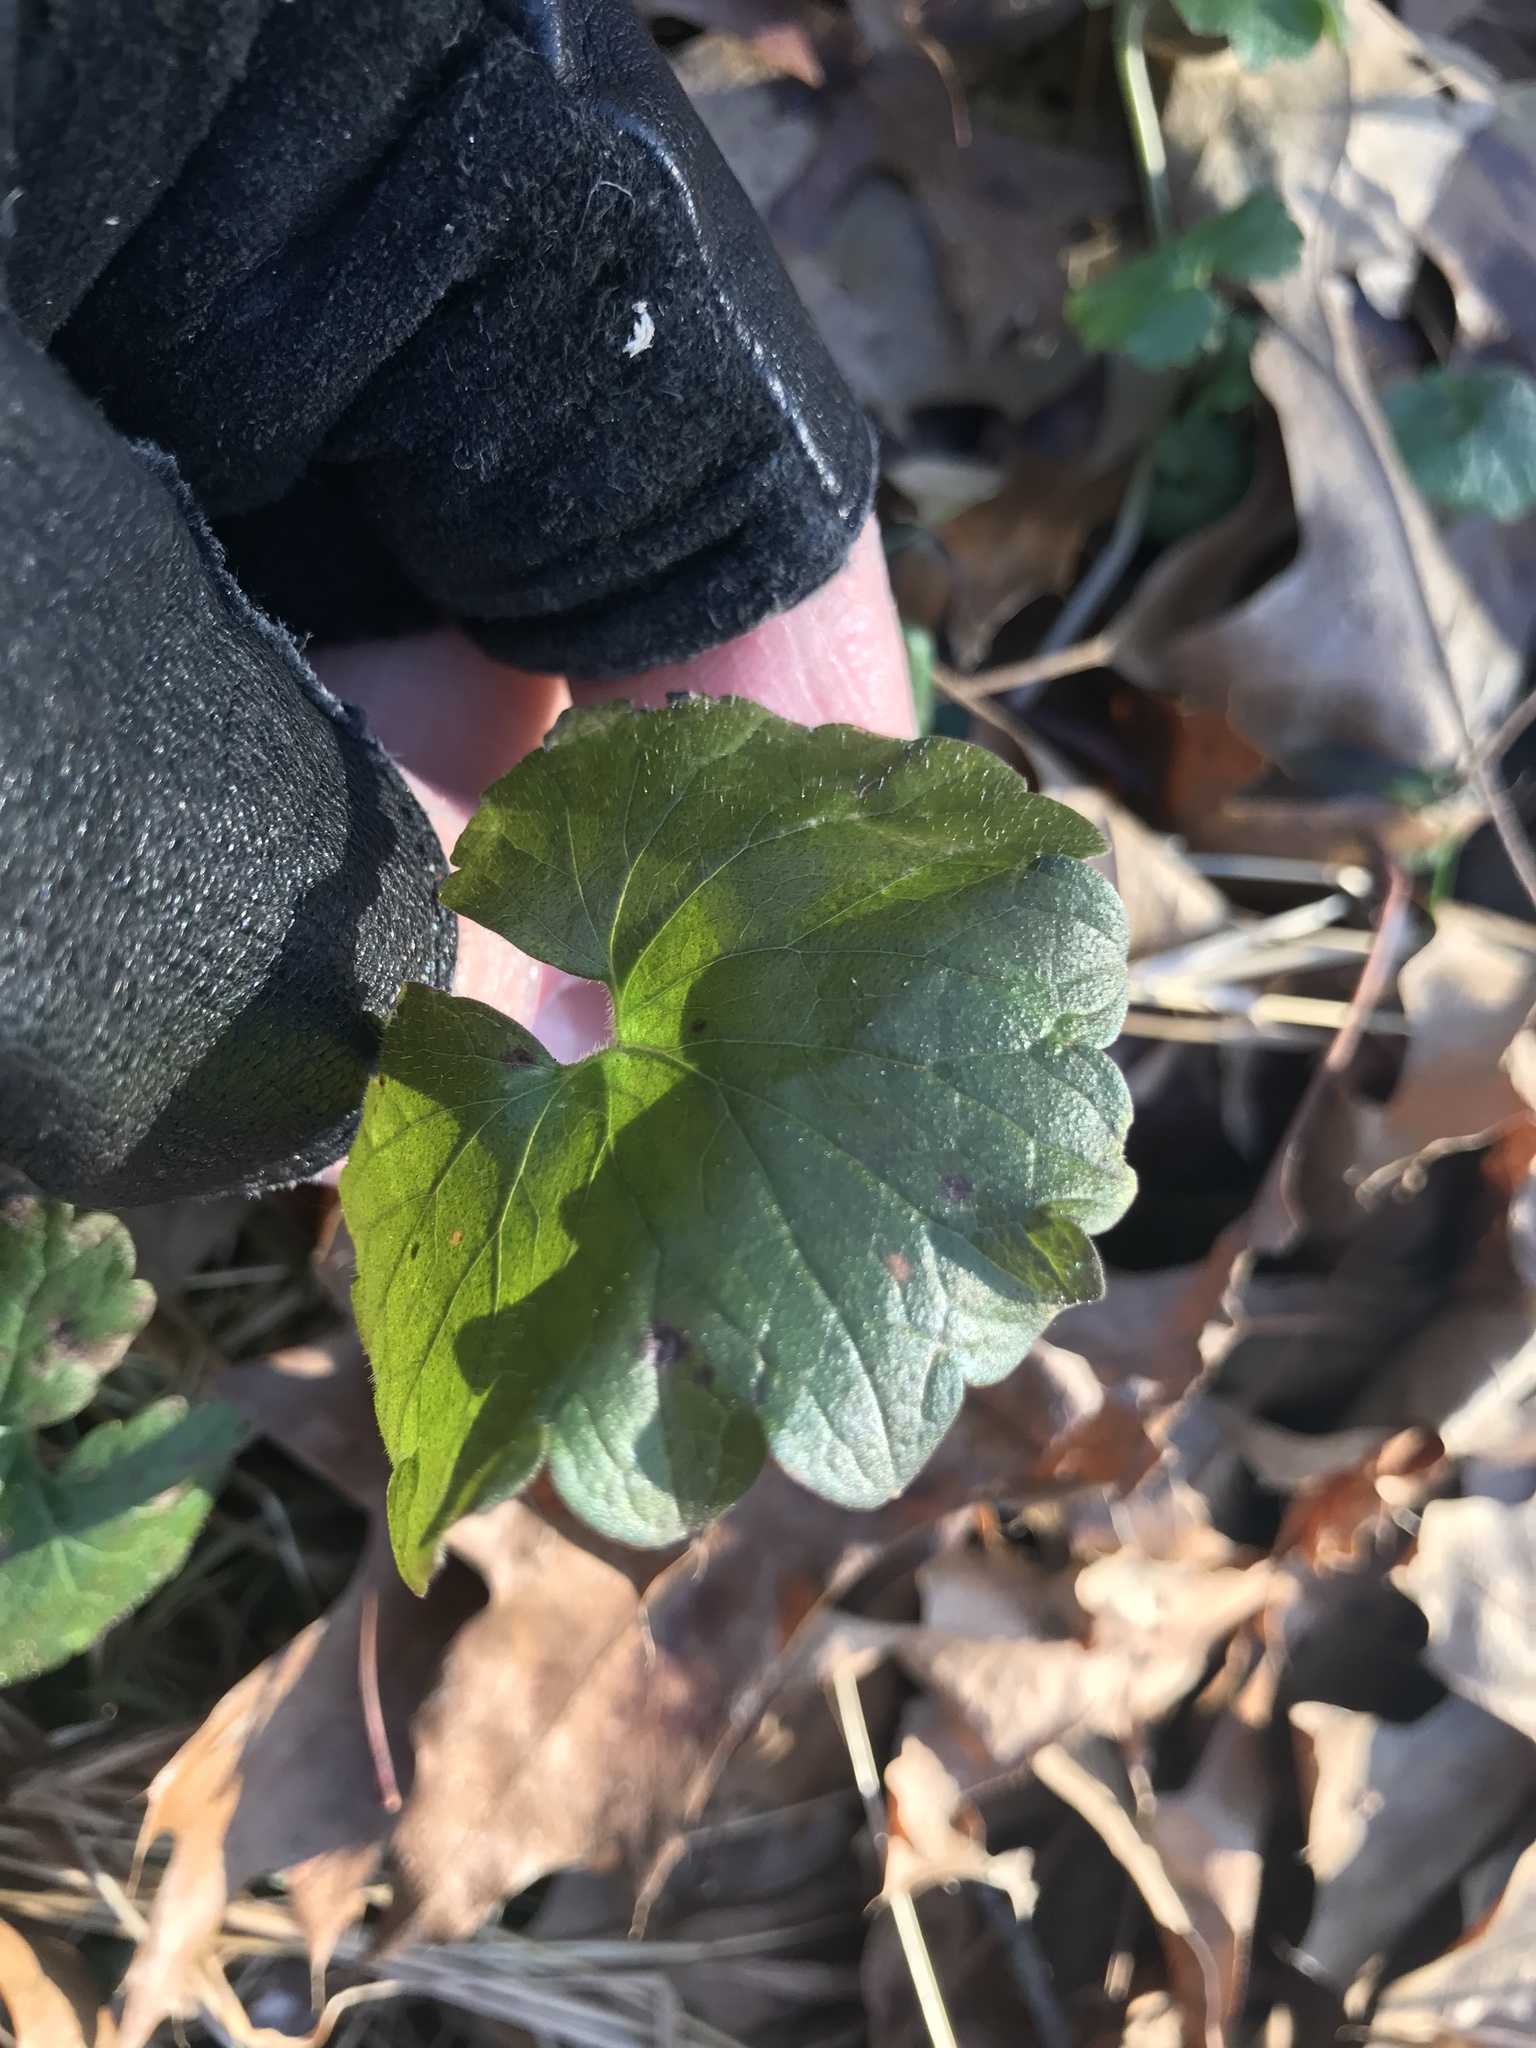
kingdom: Plantae
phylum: Tracheophyta
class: Magnoliopsida
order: Lamiales
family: Lamiaceae
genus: Glechoma
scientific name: Glechoma hederacea
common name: Ground ivy
